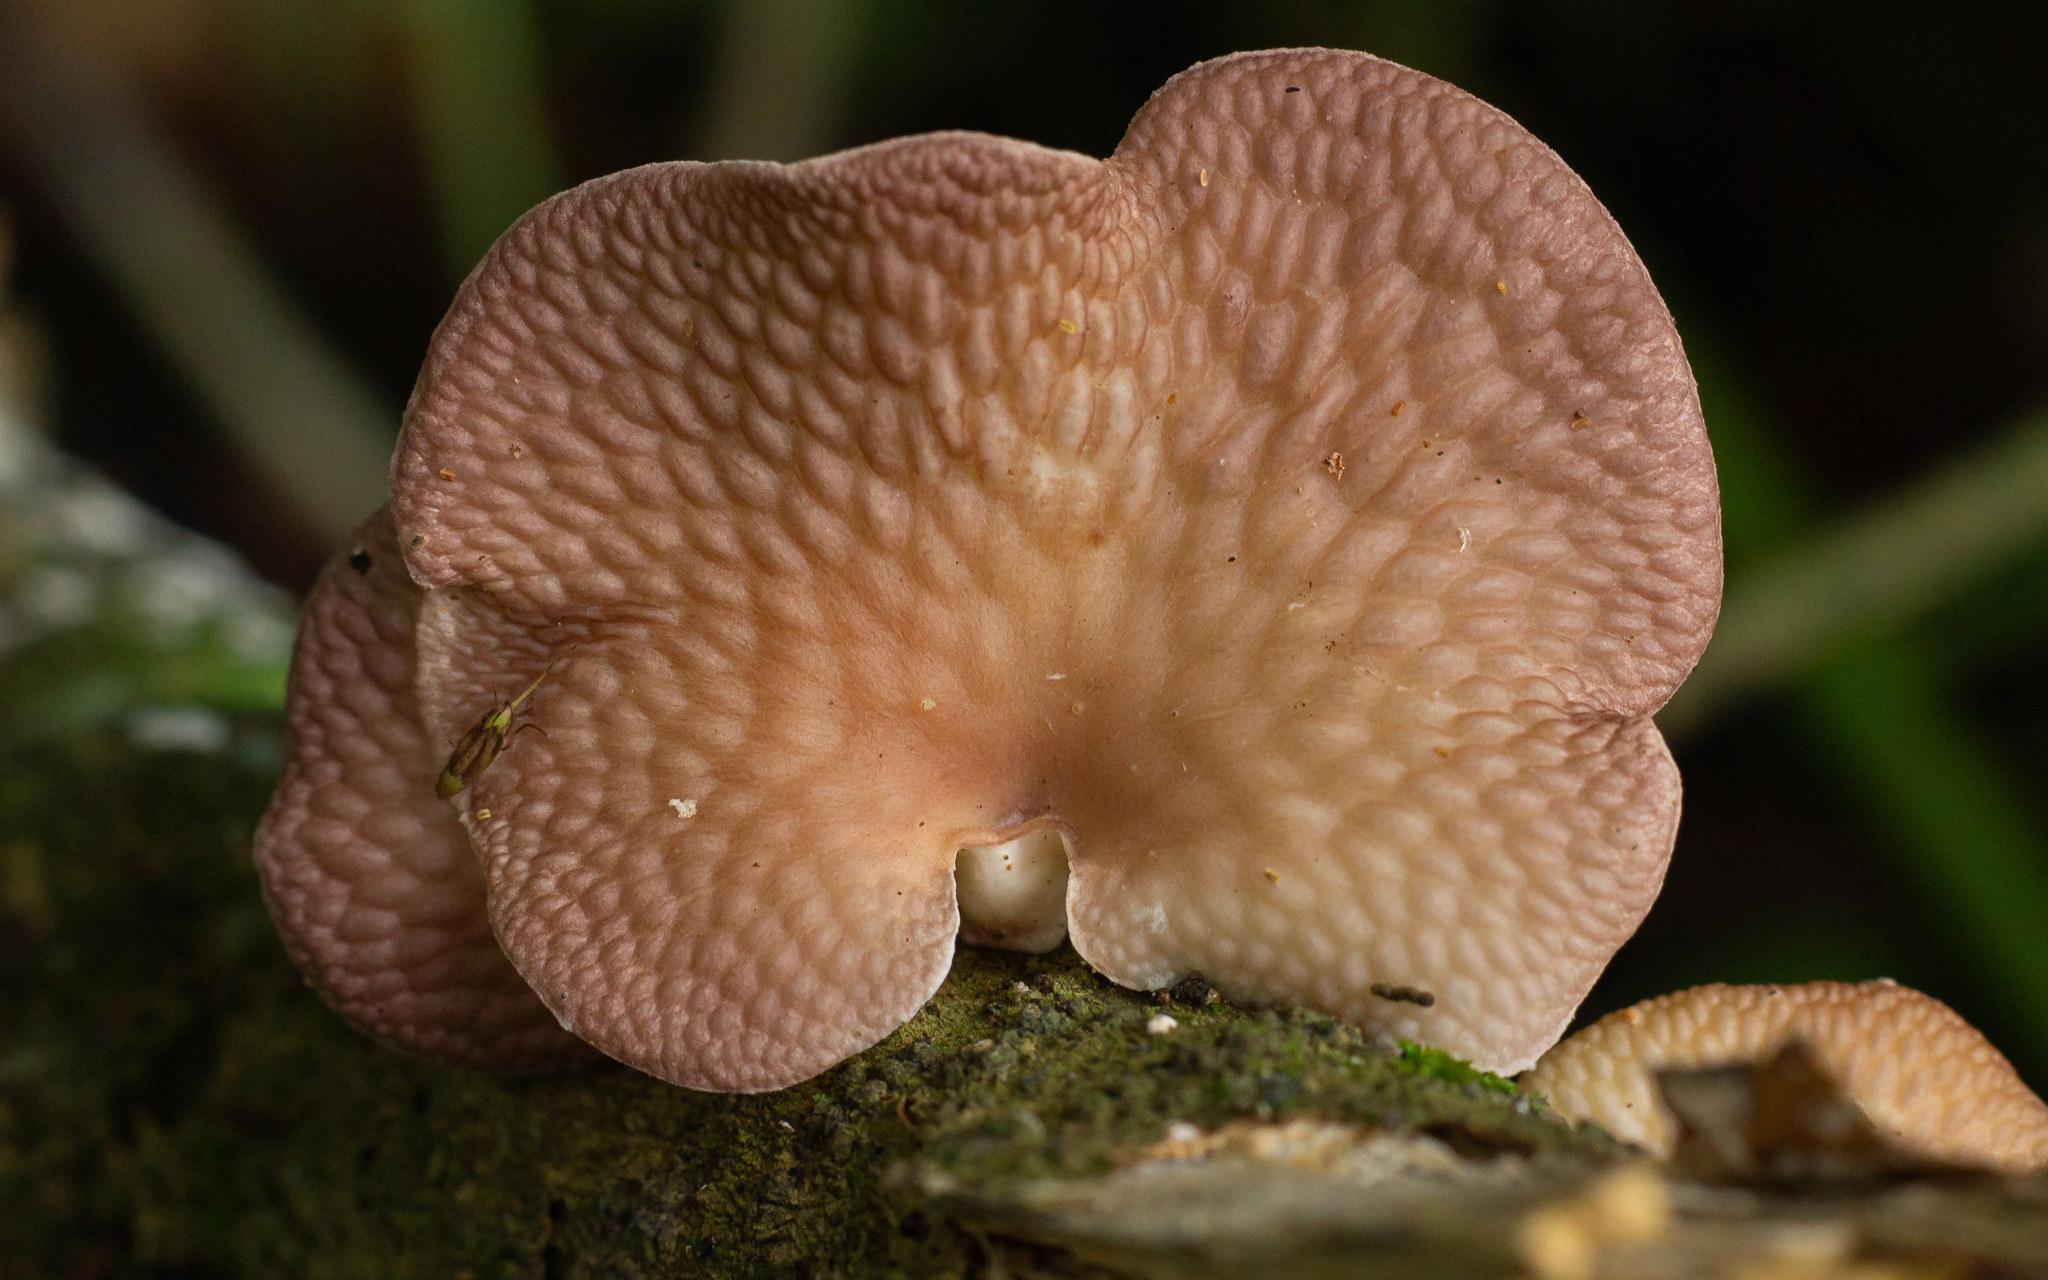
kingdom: Fungi
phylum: Basidiomycota
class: Agaricomycetes
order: Polyporales
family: Polyporaceae
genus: Neofavolus
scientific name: Neofavolus subpurpurascens
